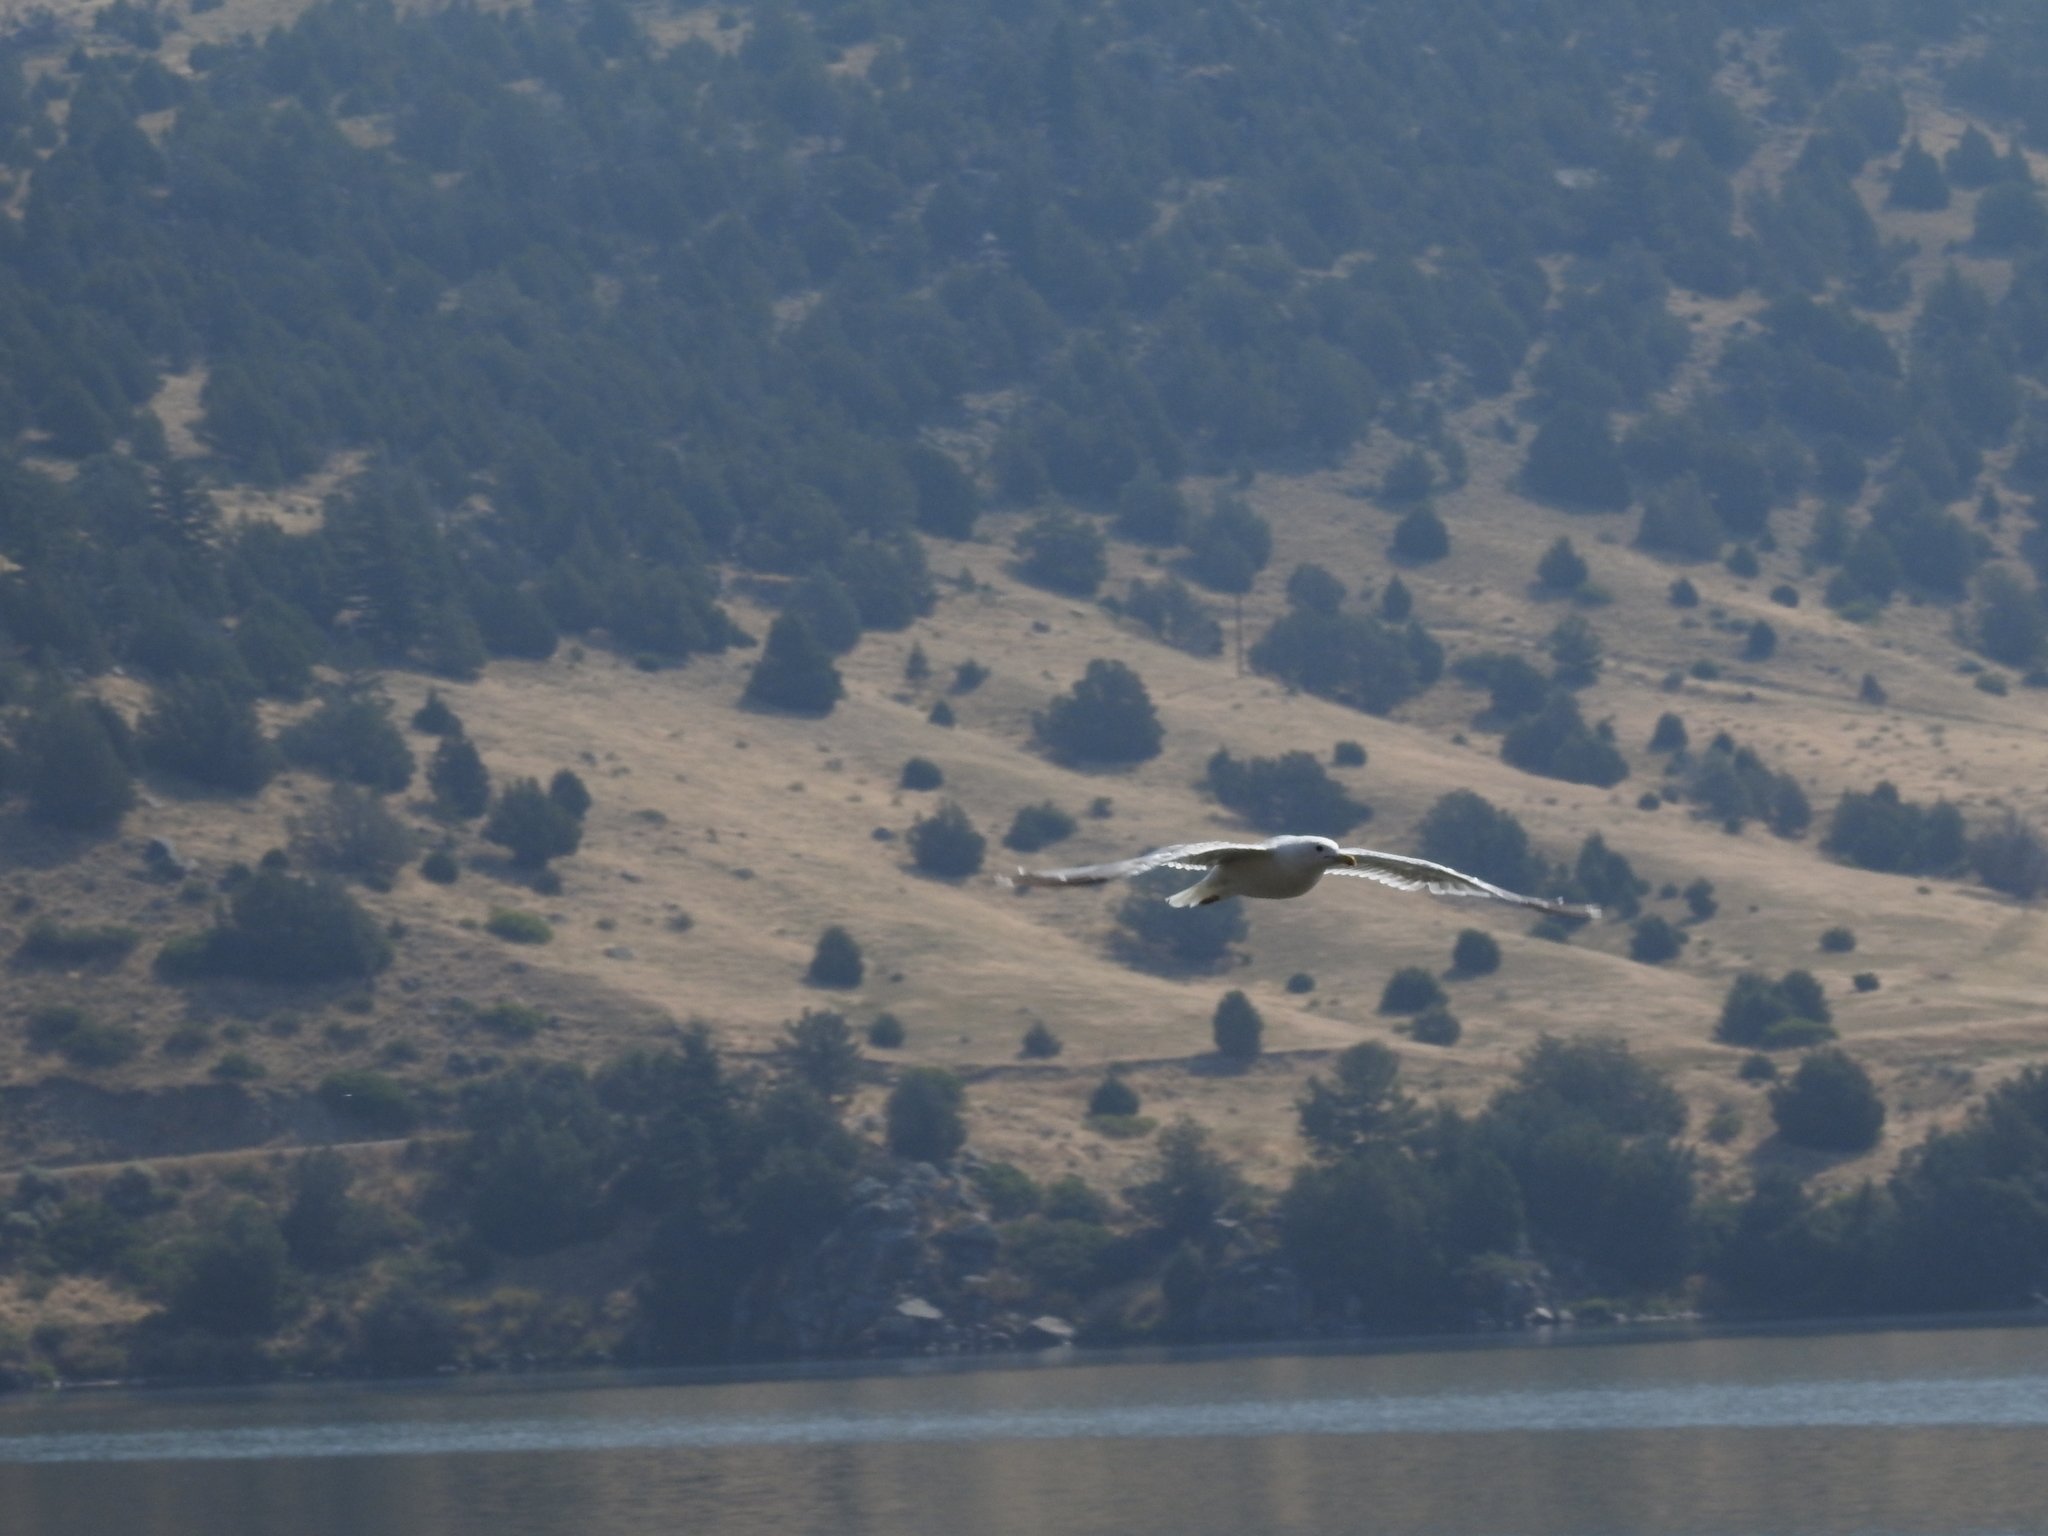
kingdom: Animalia
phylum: Chordata
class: Aves
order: Charadriiformes
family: Laridae
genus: Larus
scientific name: Larus californicus
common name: California gull
